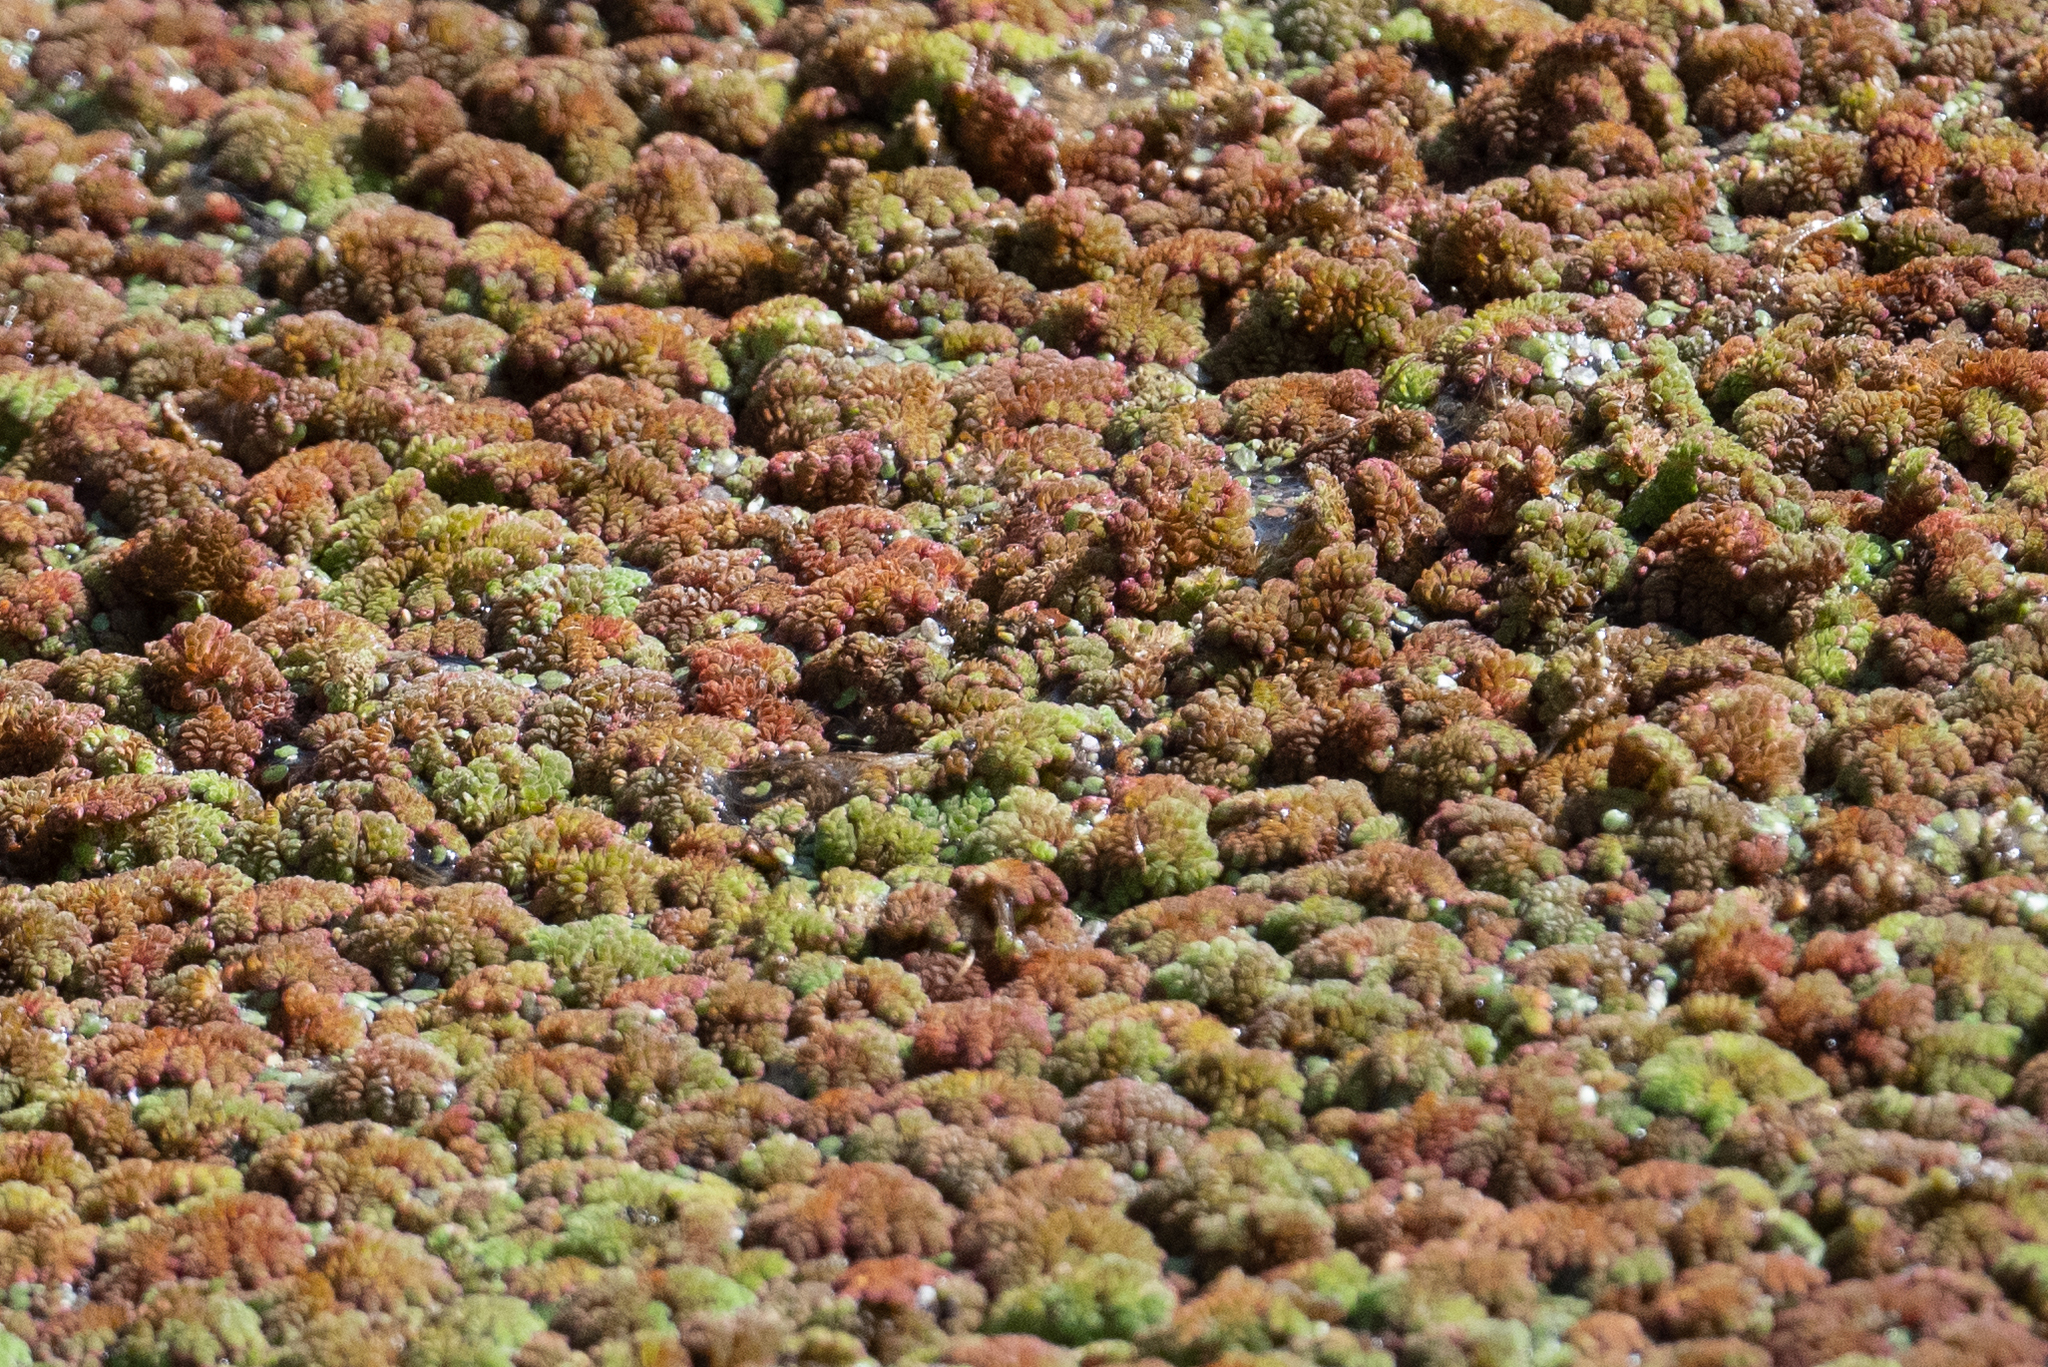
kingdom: Plantae
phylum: Tracheophyta
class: Polypodiopsida
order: Salviniales
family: Salviniaceae
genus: Azolla
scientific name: Azolla filiculoides
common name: Water fern
